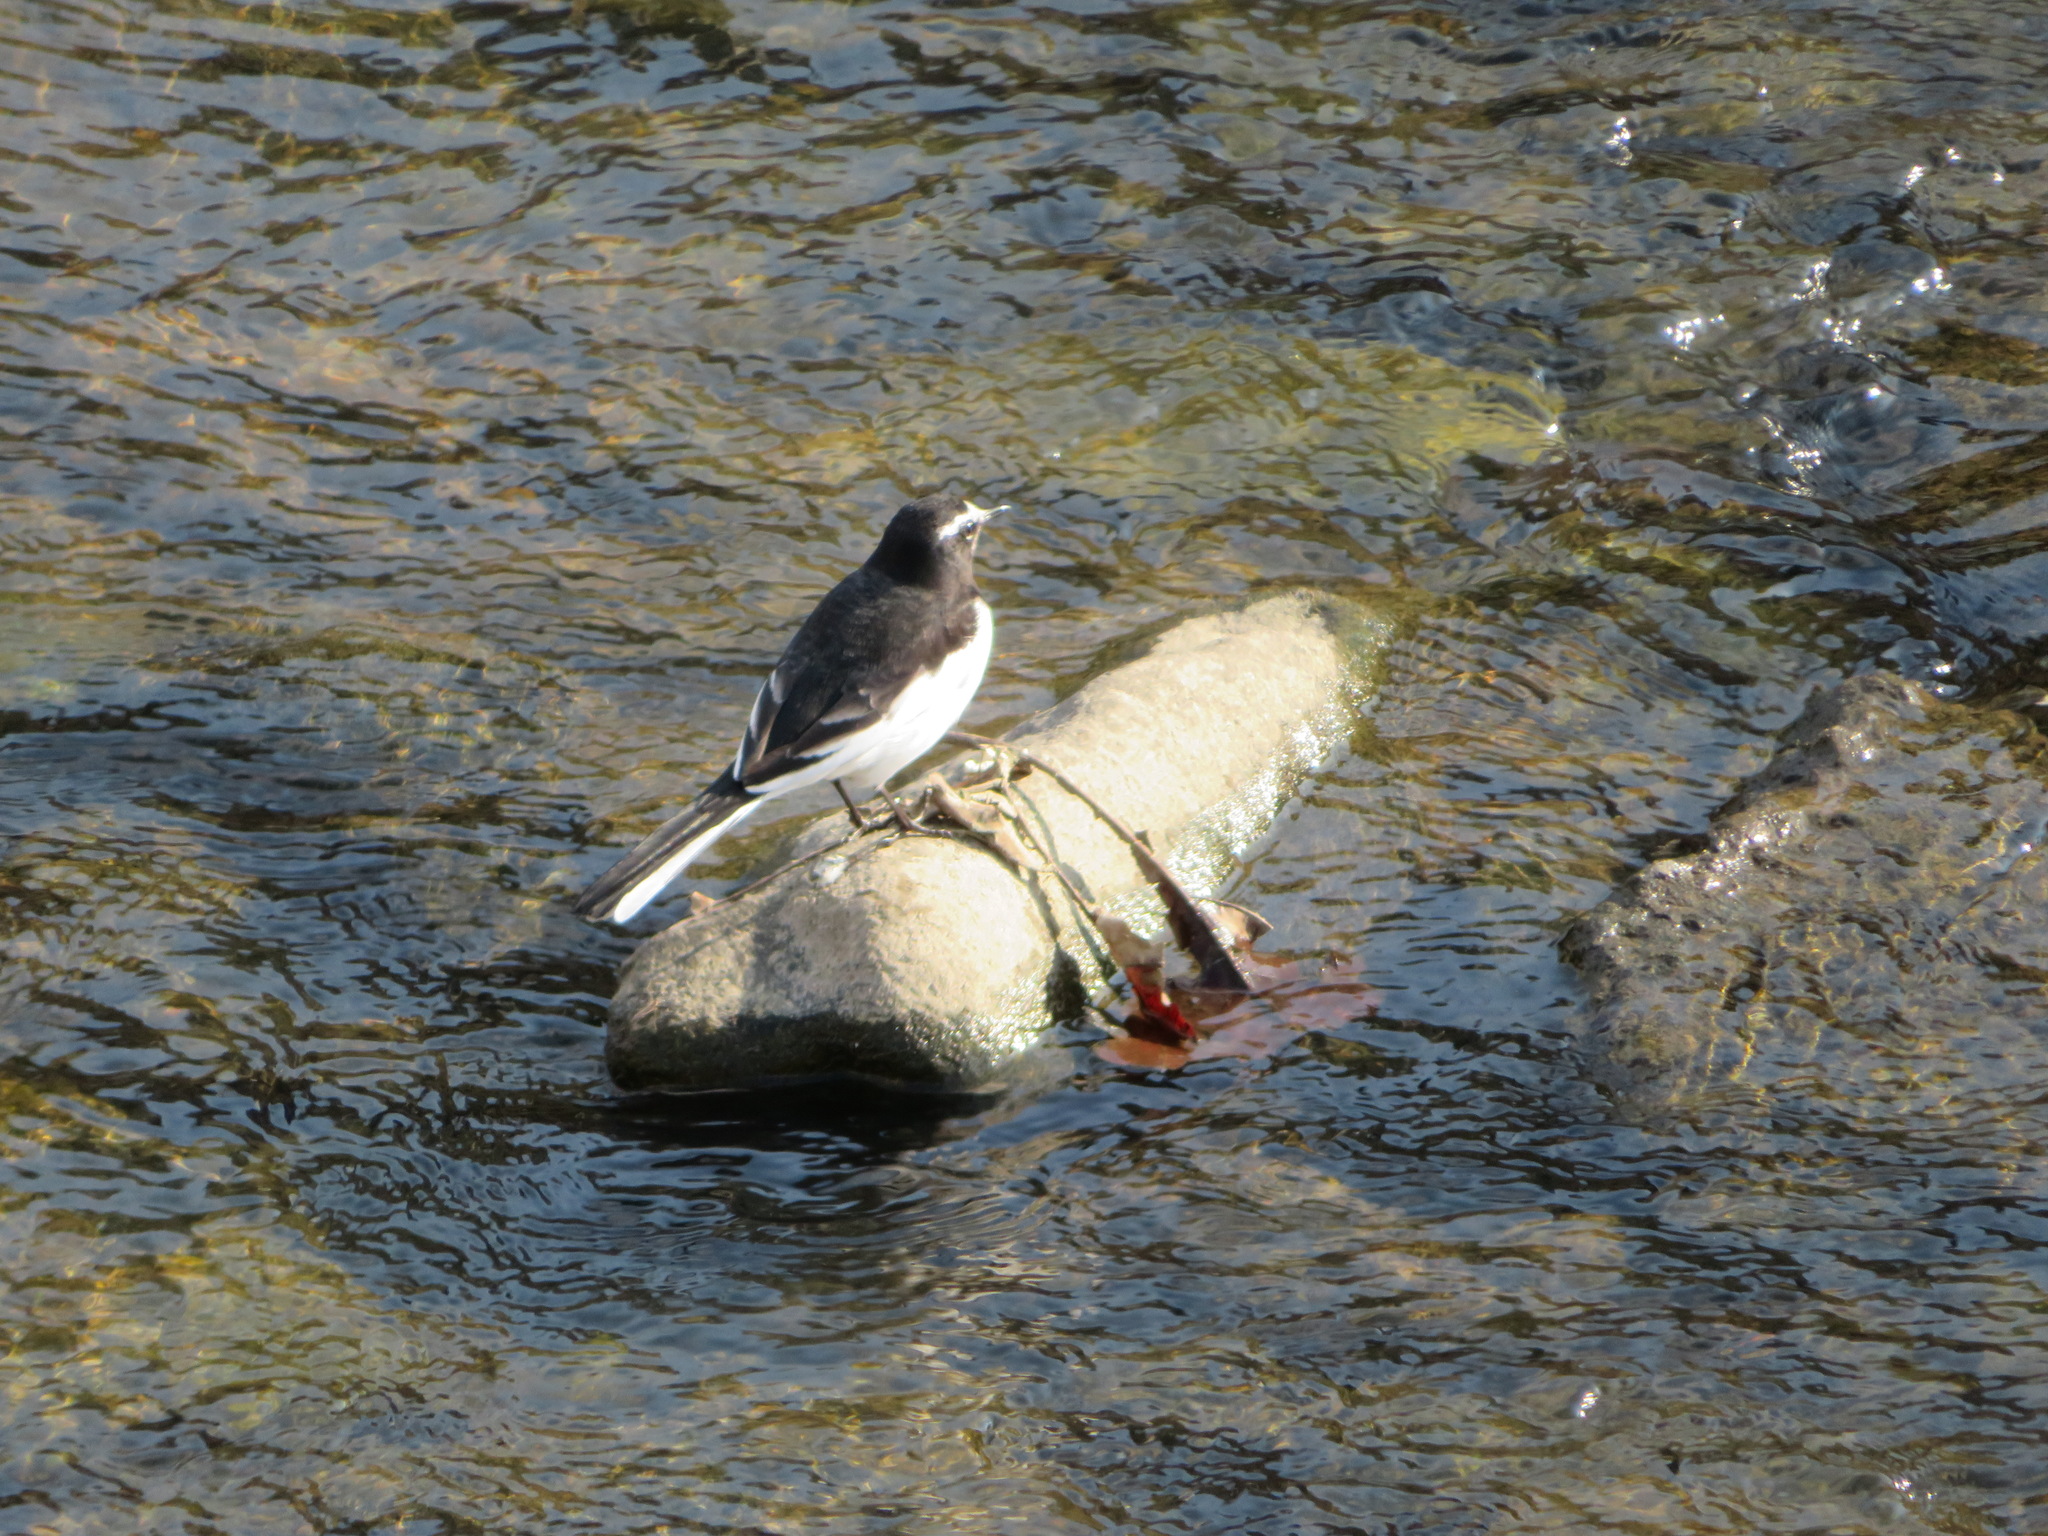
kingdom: Animalia
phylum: Chordata
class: Aves
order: Passeriformes
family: Motacillidae
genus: Motacilla
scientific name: Motacilla grandis
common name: Japanese wagtail
